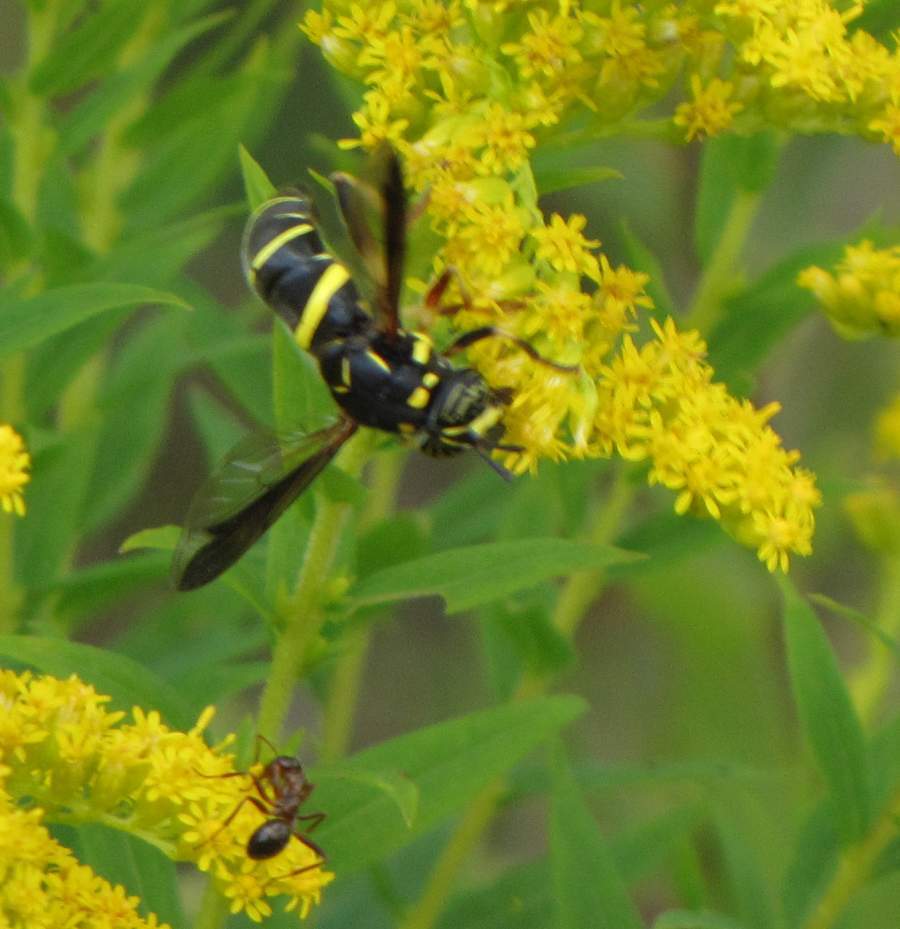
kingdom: Animalia
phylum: Arthropoda
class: Insecta
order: Diptera
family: Syrphidae
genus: Spilomyia
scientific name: Spilomyia sayi
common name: Four-lined hornet fly
